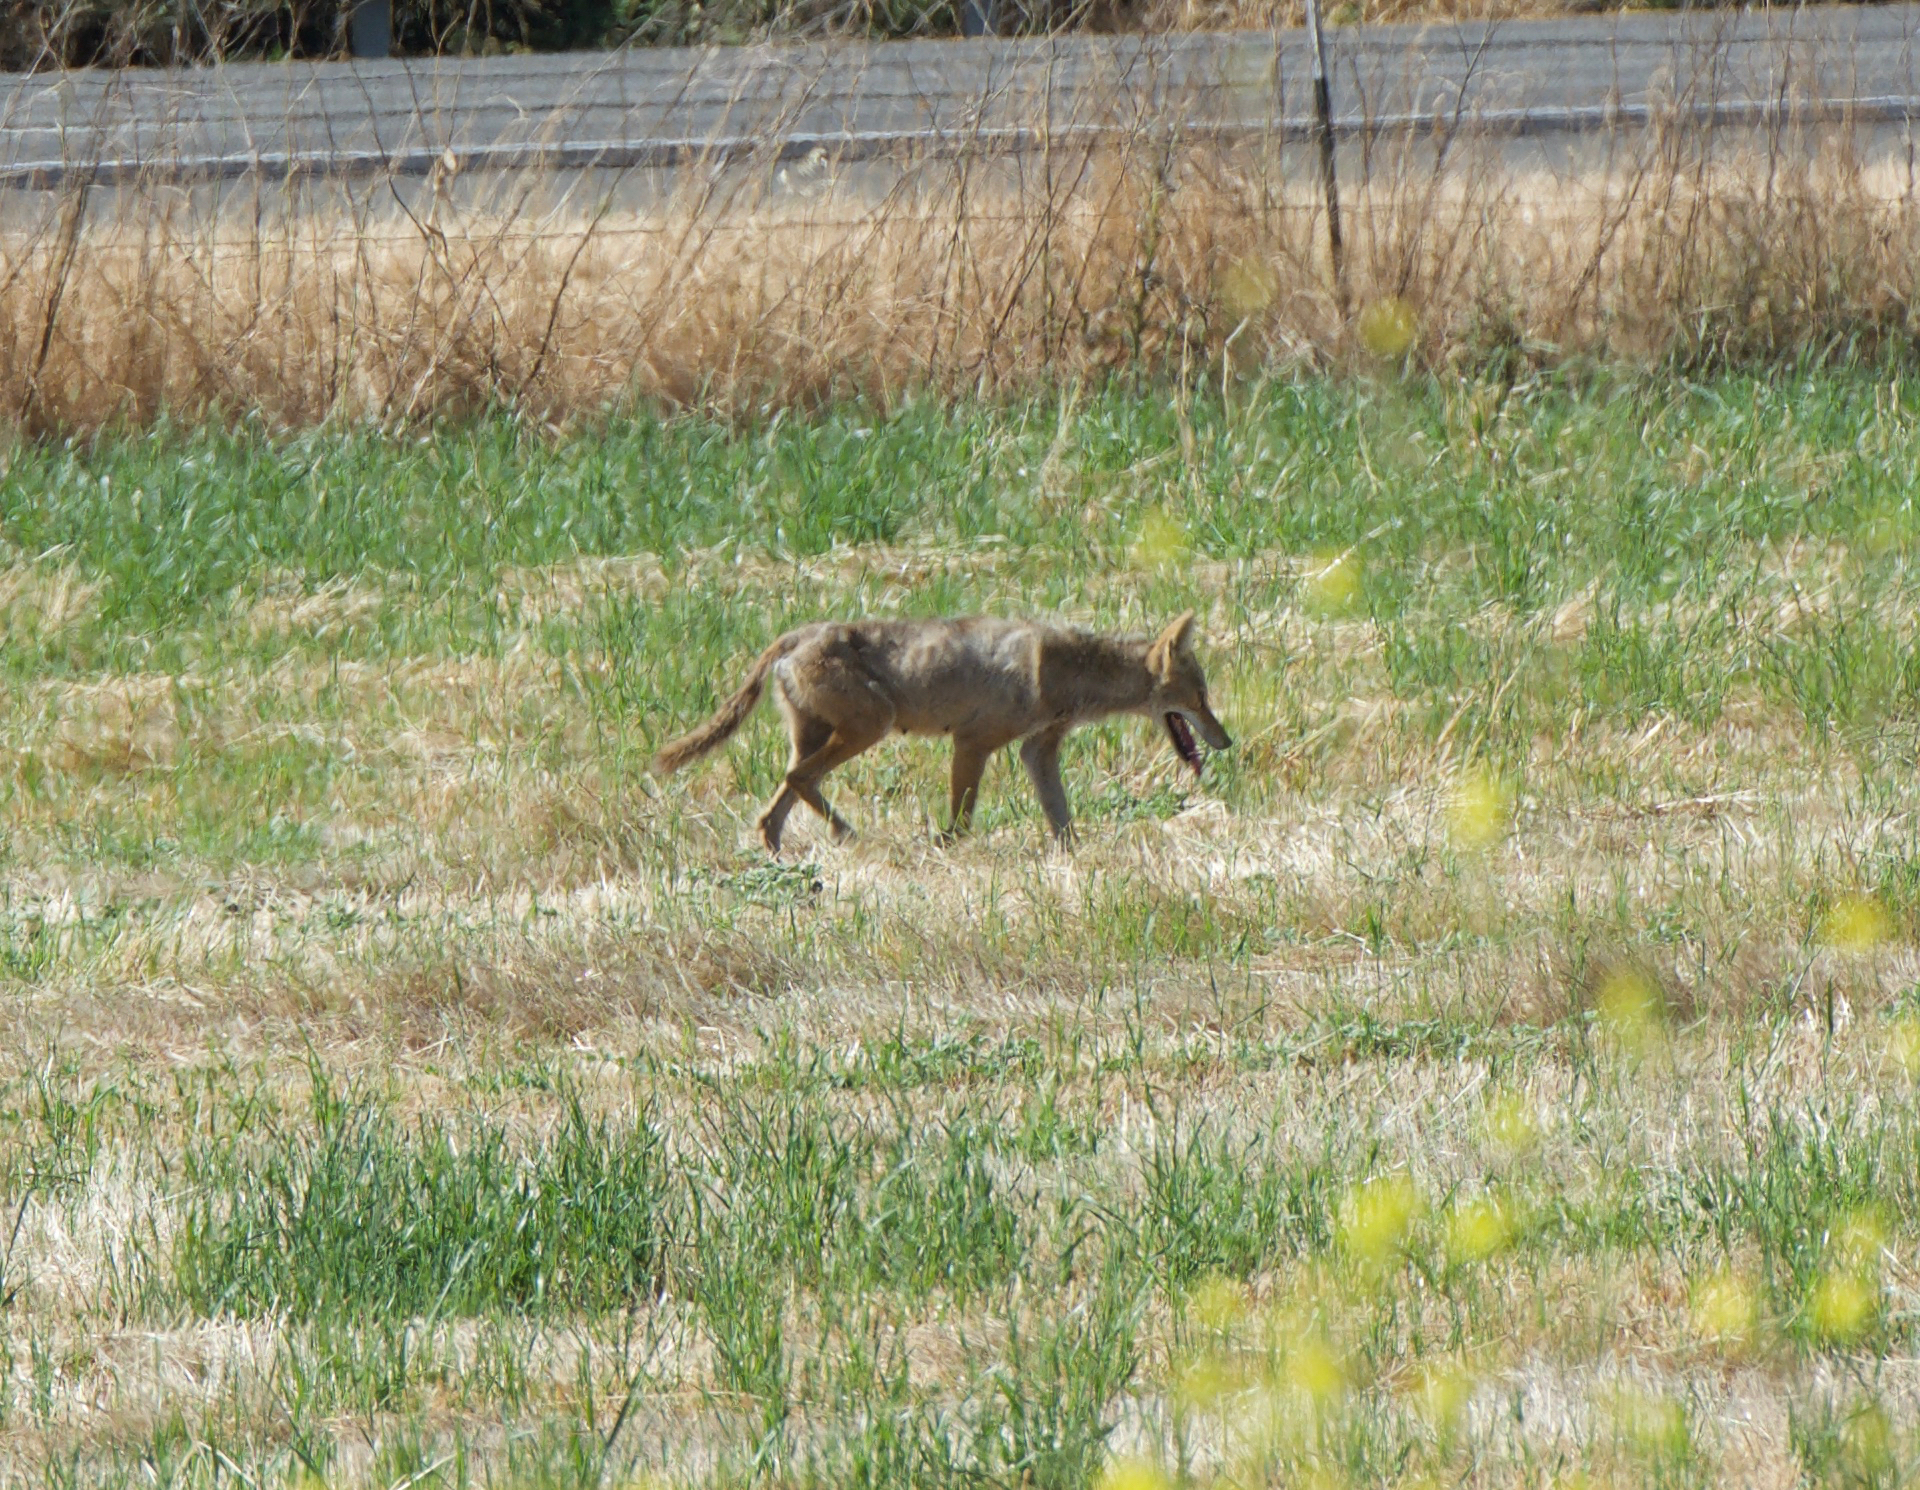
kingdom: Animalia
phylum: Chordata
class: Mammalia
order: Carnivora
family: Canidae
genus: Canis
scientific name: Canis latrans
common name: Coyote
